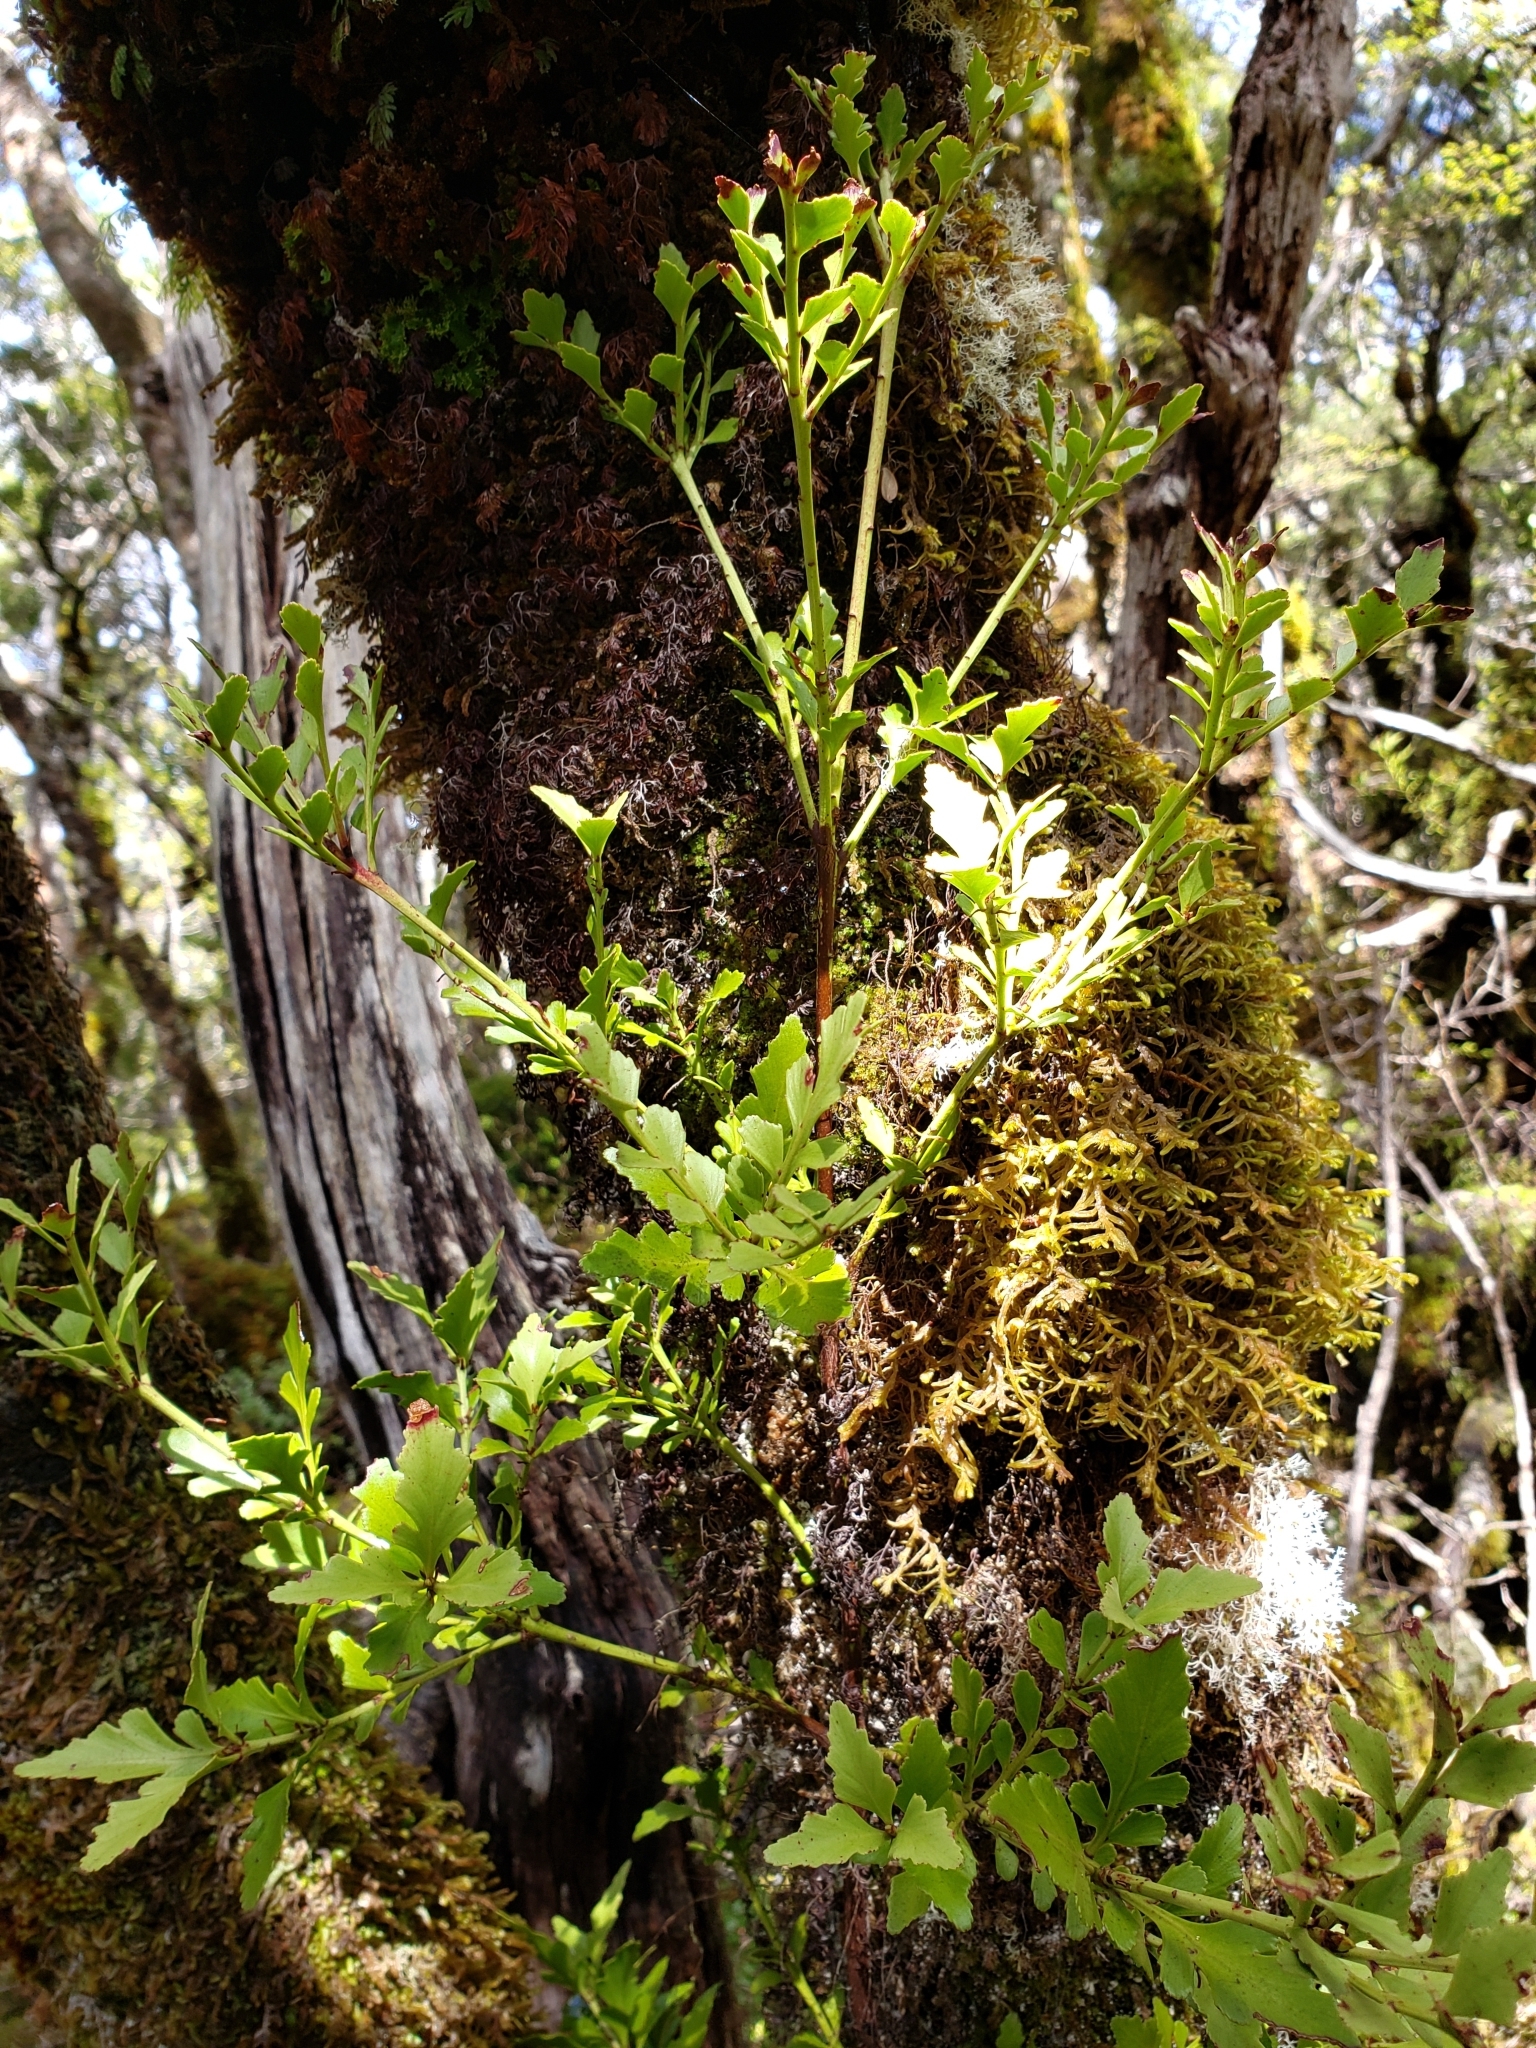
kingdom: Plantae
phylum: Tracheophyta
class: Pinopsida
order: Pinales
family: Phyllocladaceae
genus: Phyllocladus
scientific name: Phyllocladus trichomanoides
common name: Celery pine
